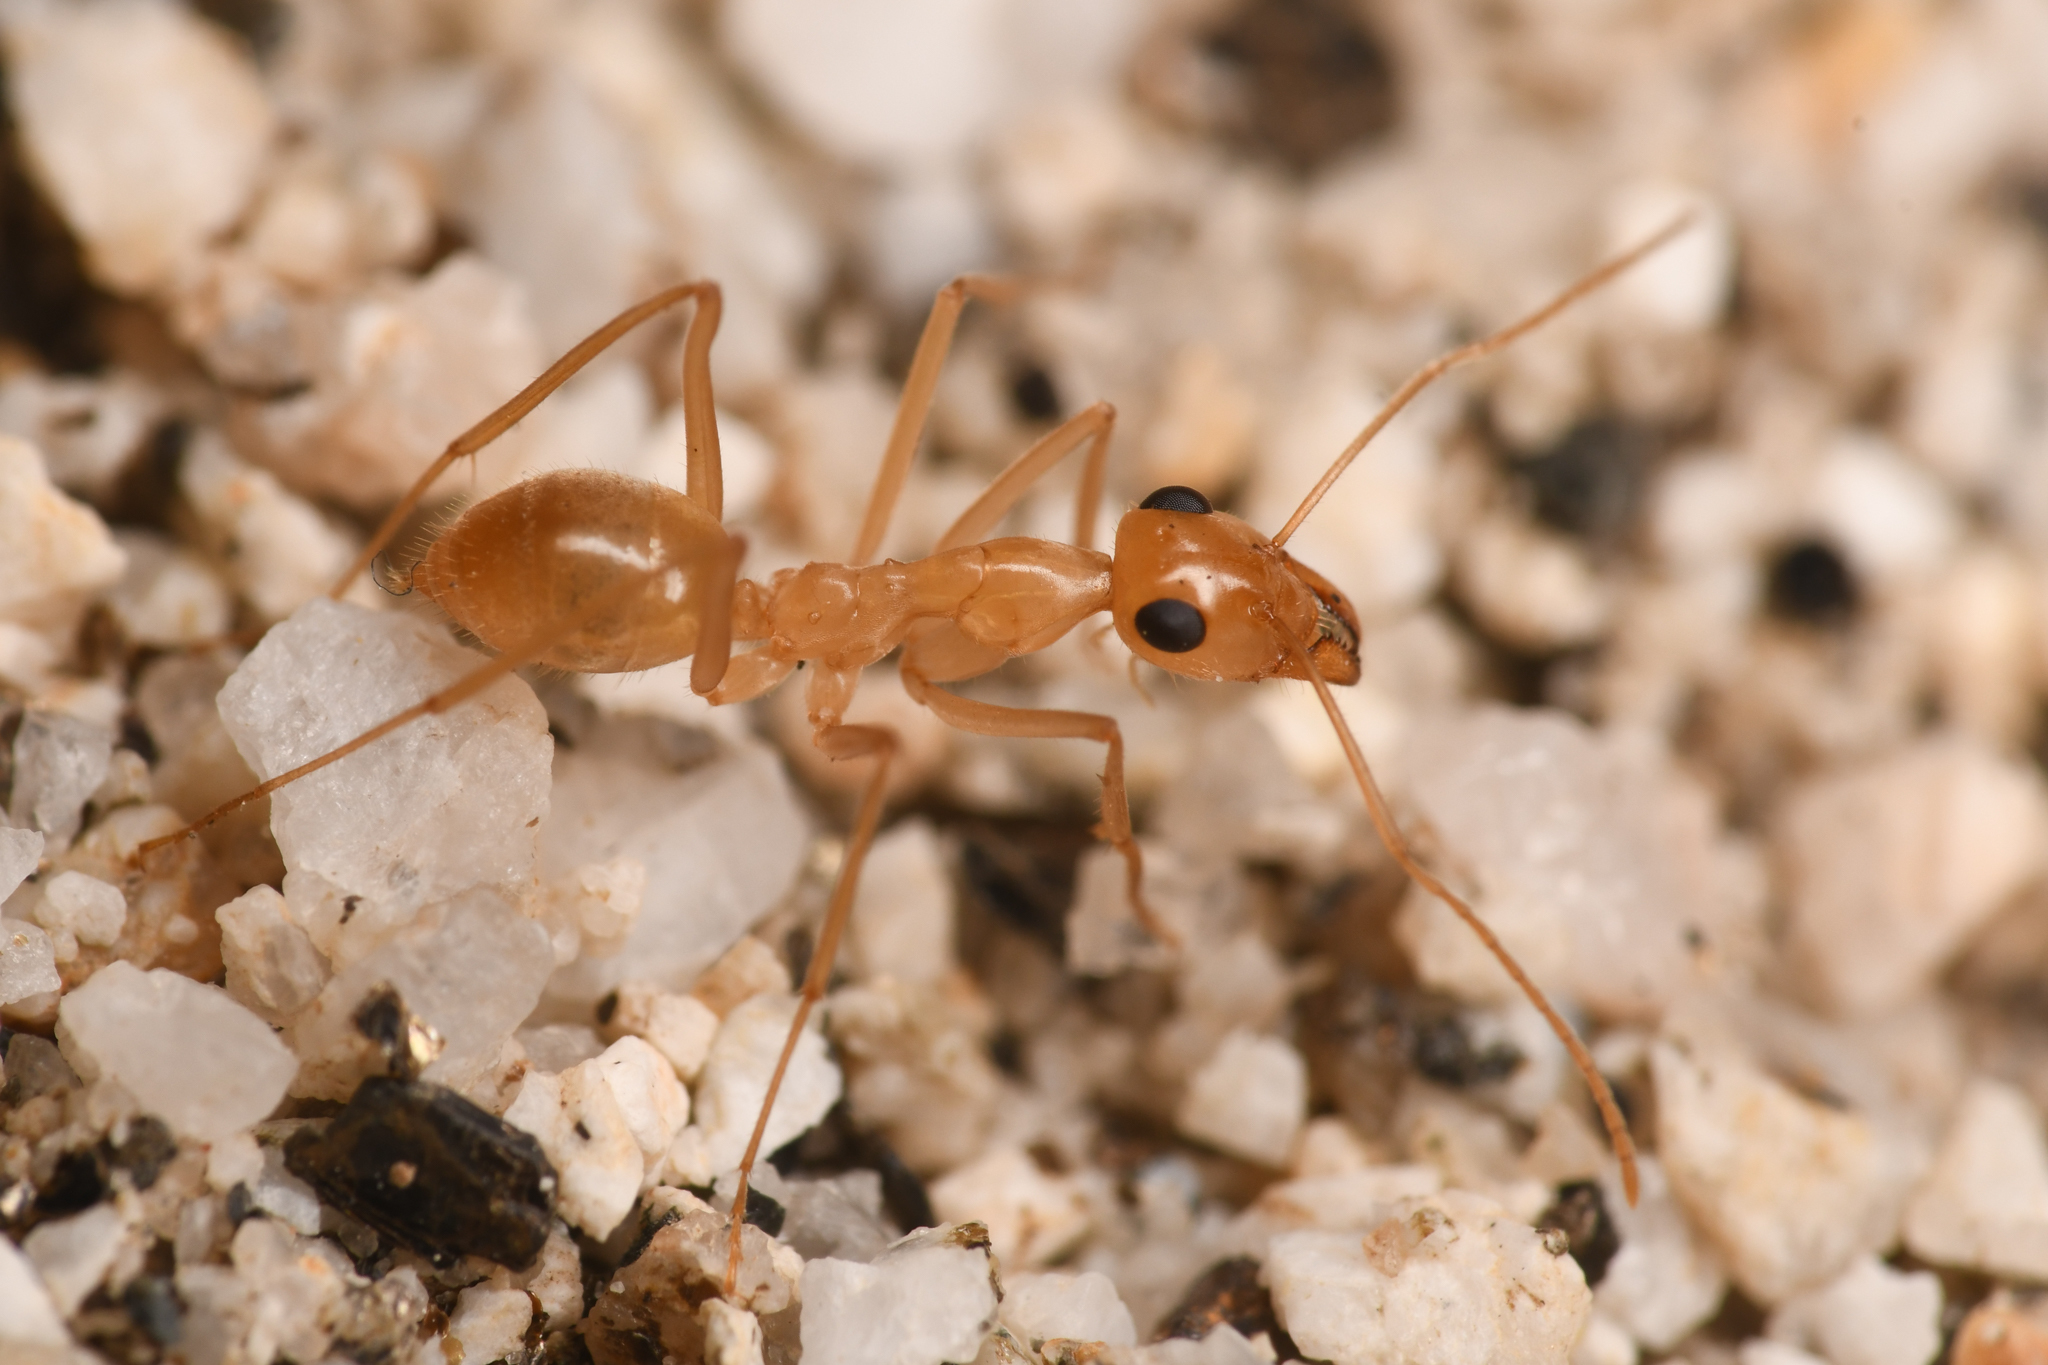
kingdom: Animalia
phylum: Arthropoda
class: Insecta
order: Hymenoptera
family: Formicidae
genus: Myrmecocystus
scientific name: Myrmecocystus mexicanus
